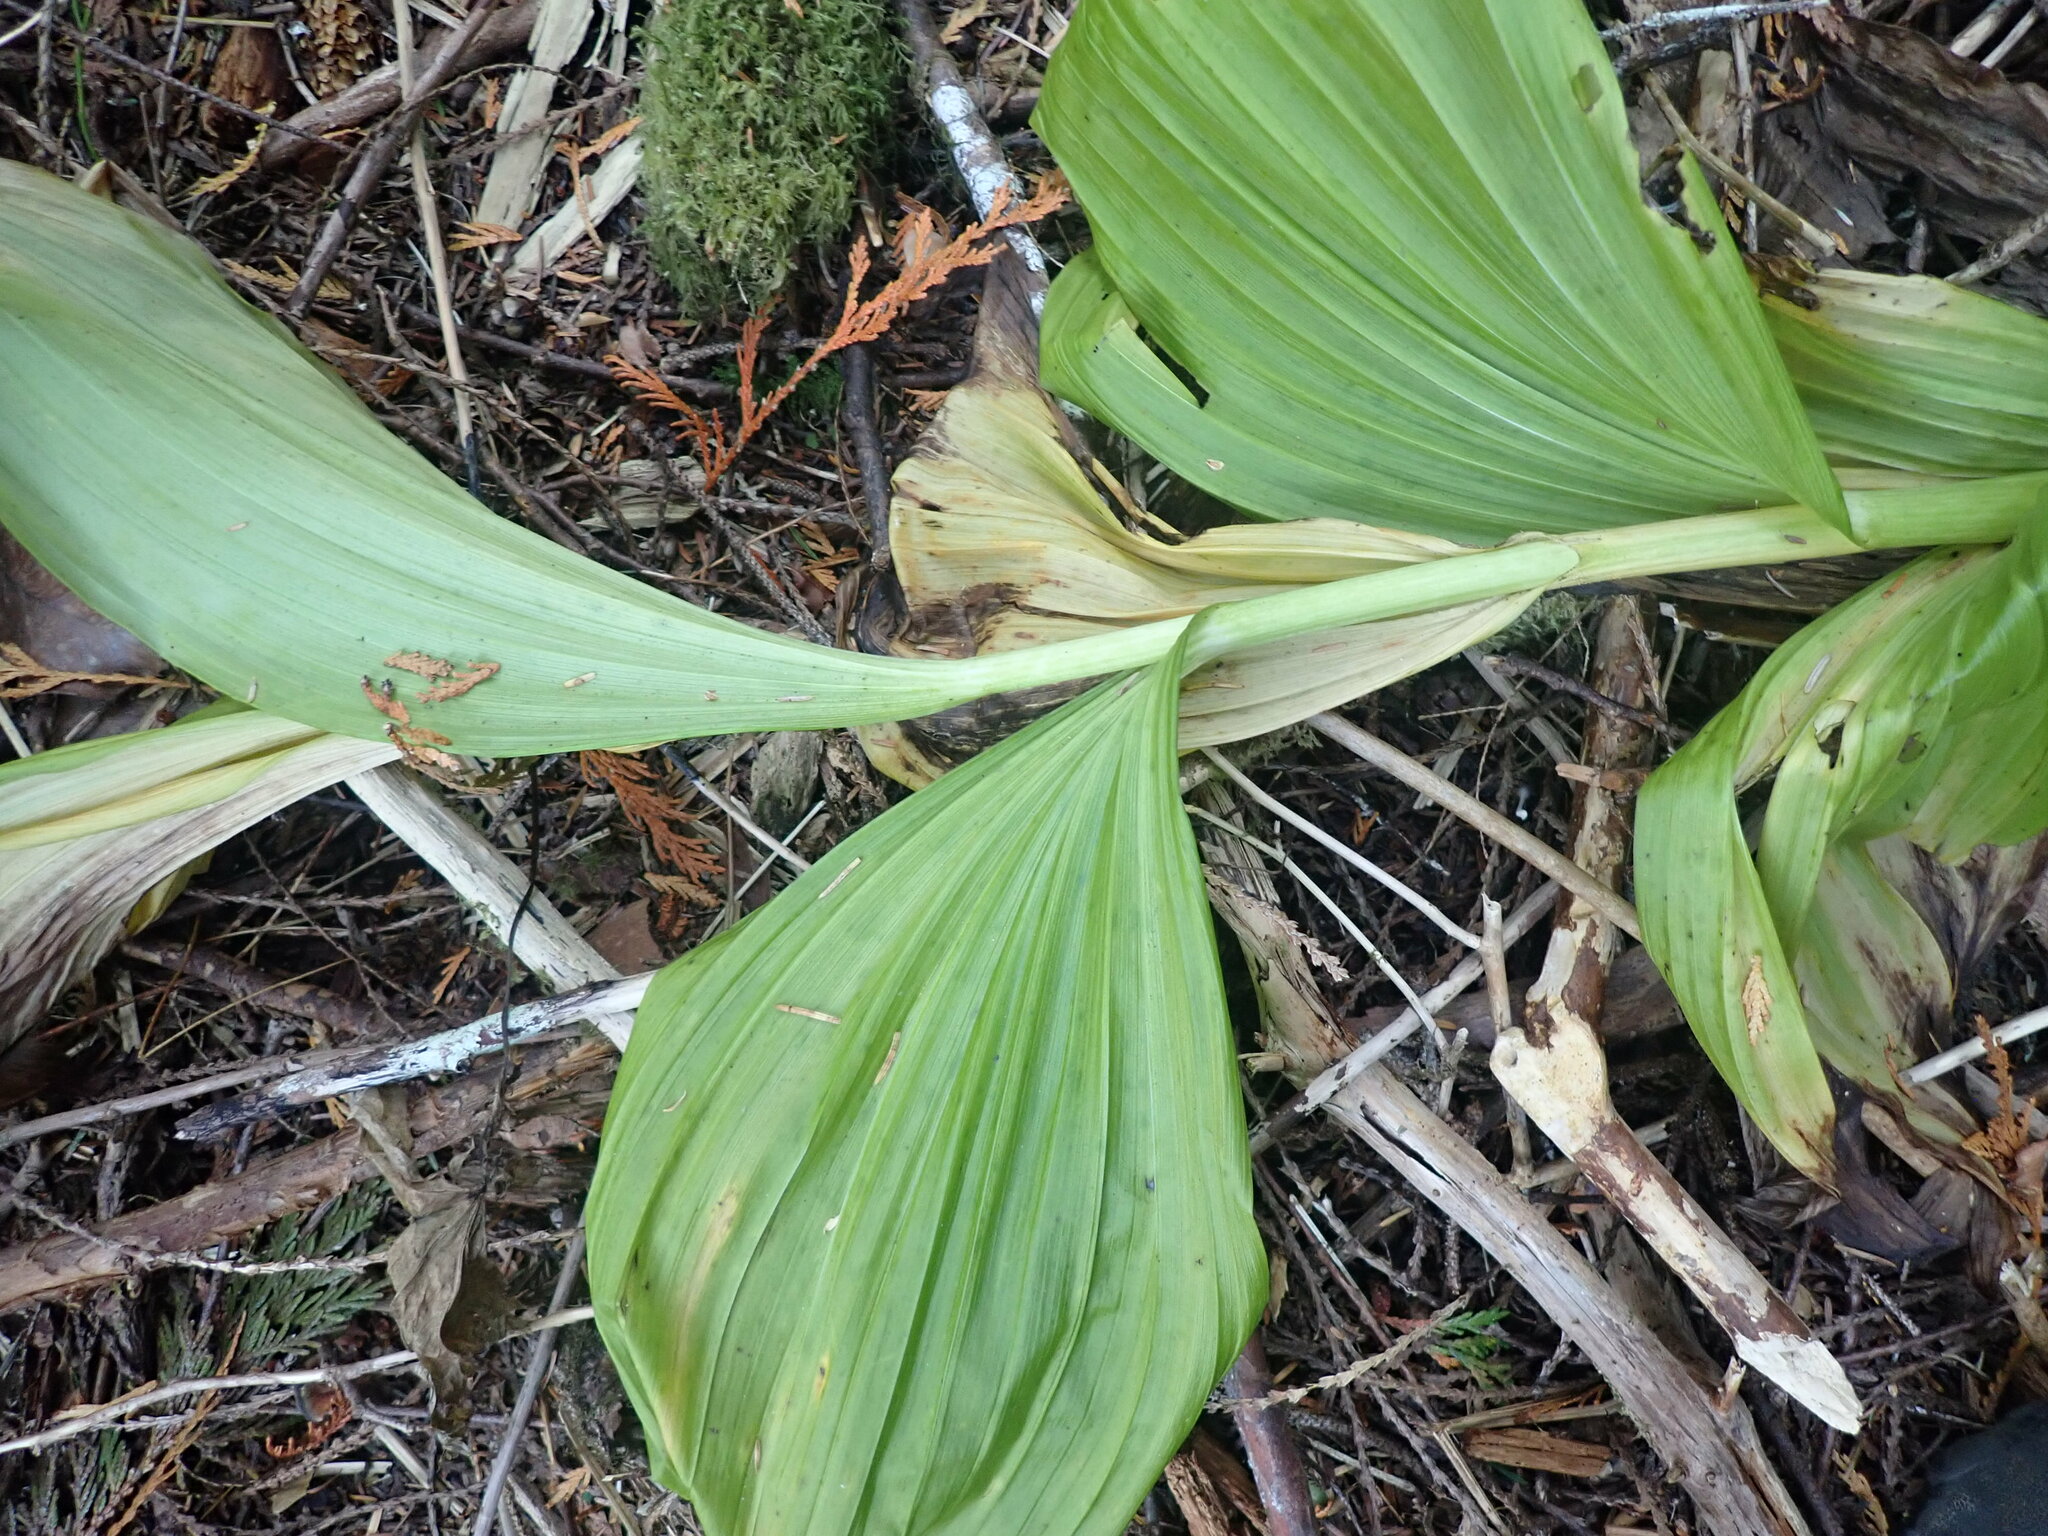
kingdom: Plantae
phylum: Tracheophyta
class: Liliopsida
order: Liliales
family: Melanthiaceae
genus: Veratrum
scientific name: Veratrum viride
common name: American false hellebore
